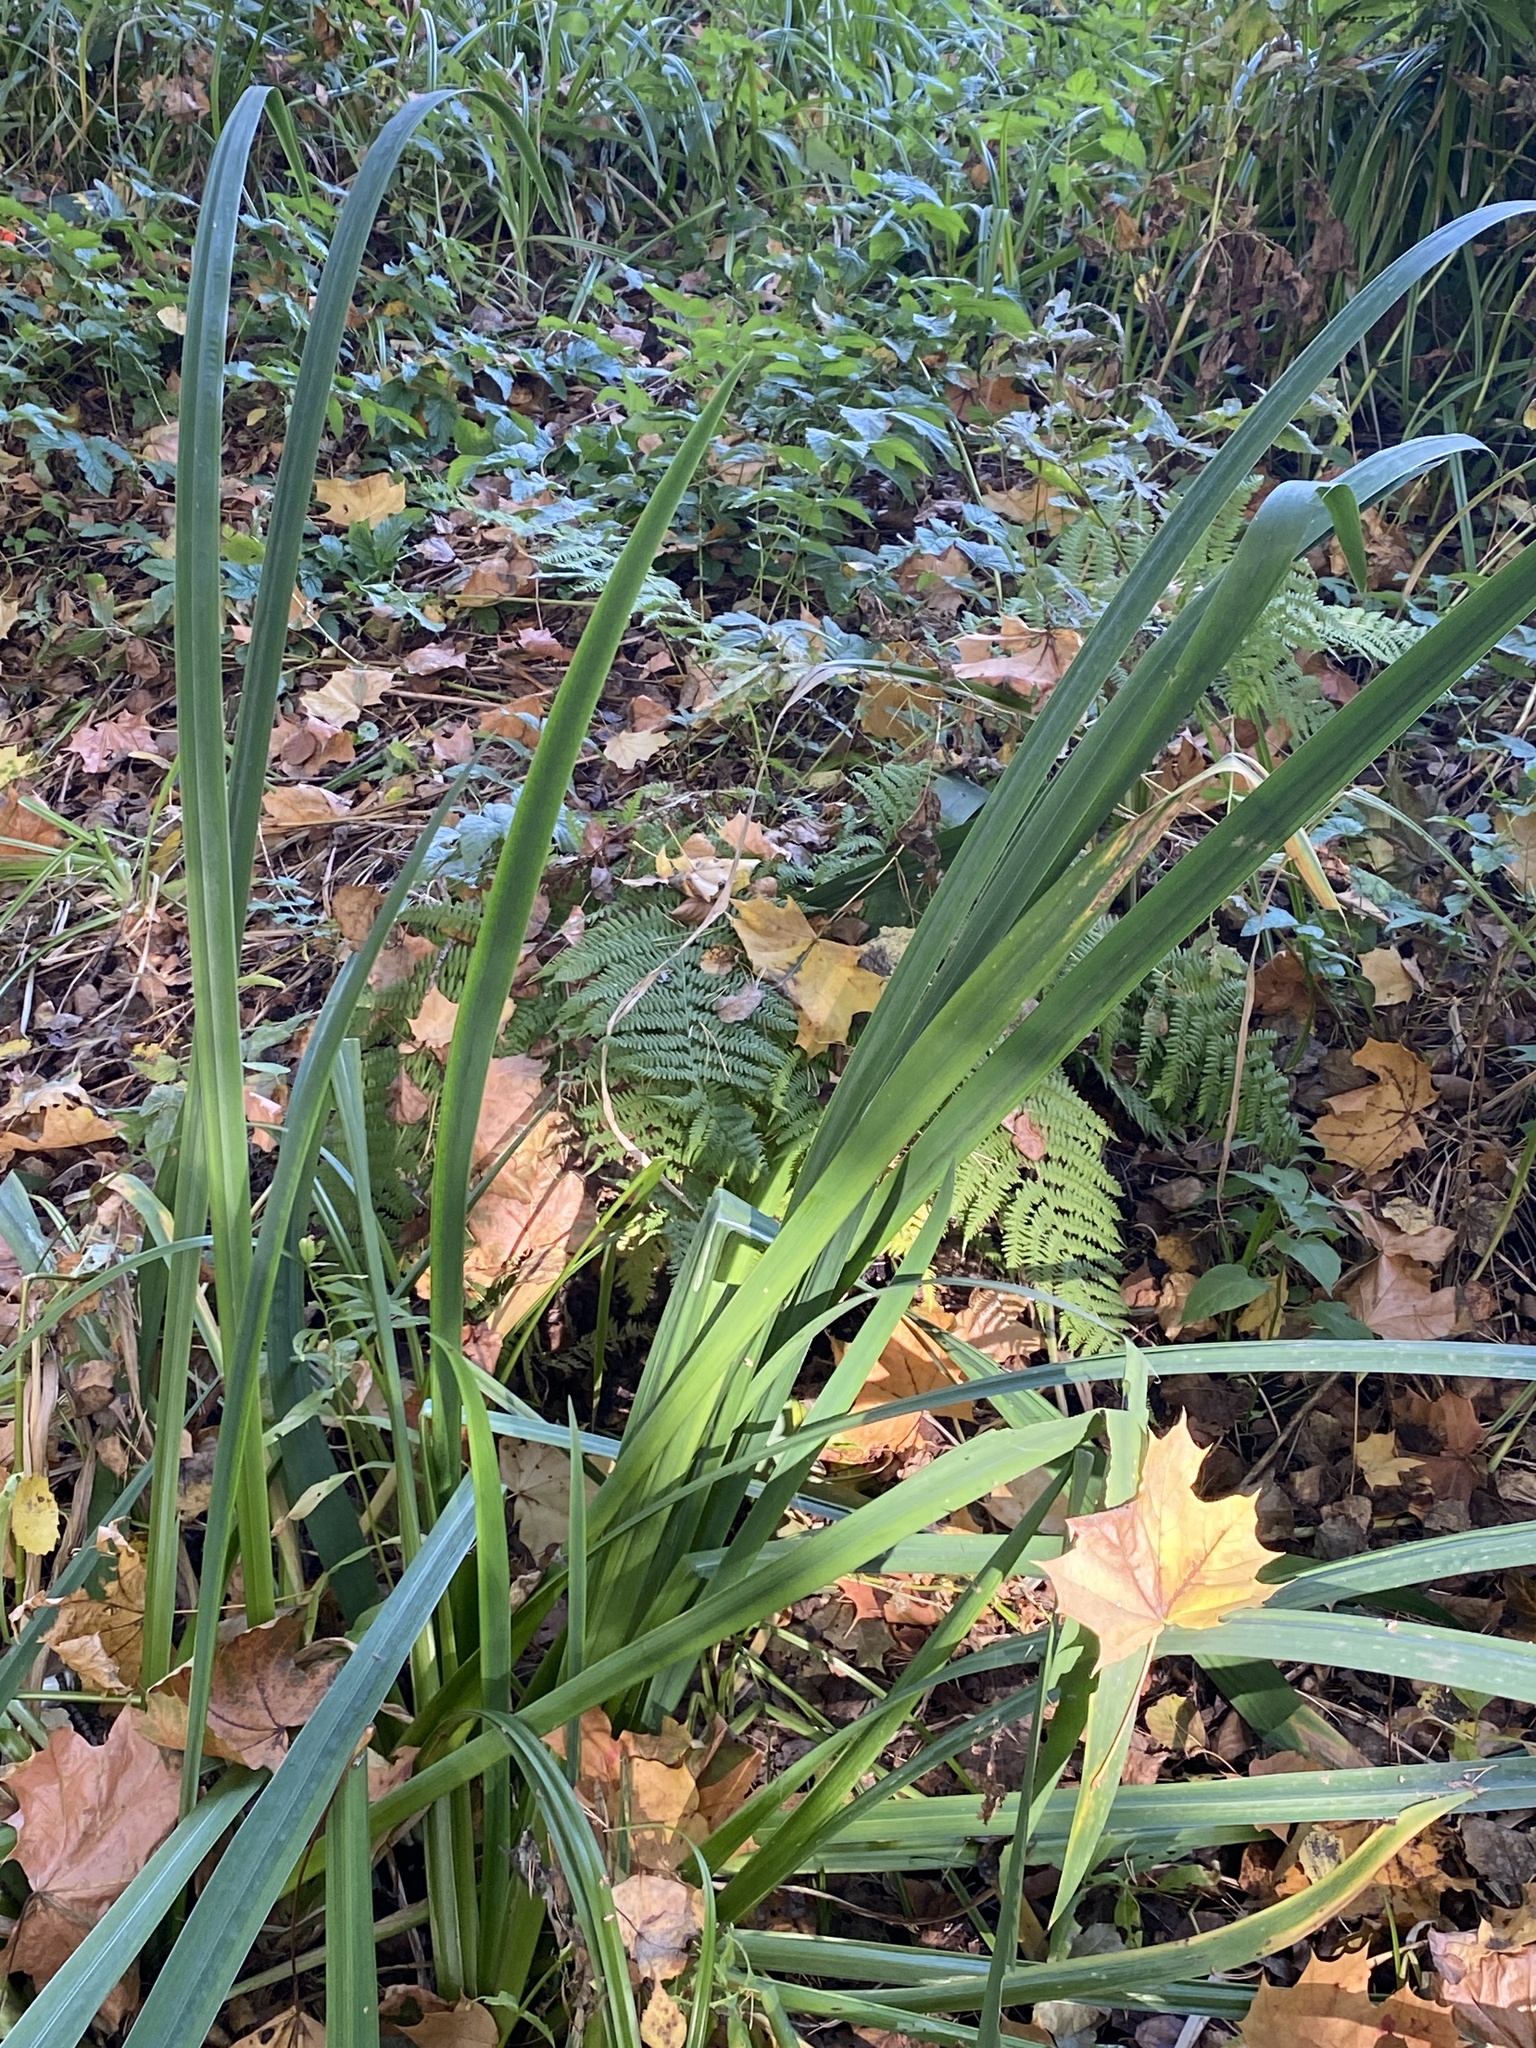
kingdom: Plantae
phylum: Tracheophyta
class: Liliopsida
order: Poales
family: Typhaceae
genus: Typha
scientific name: Typha latifolia
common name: Broadleaf cattail
